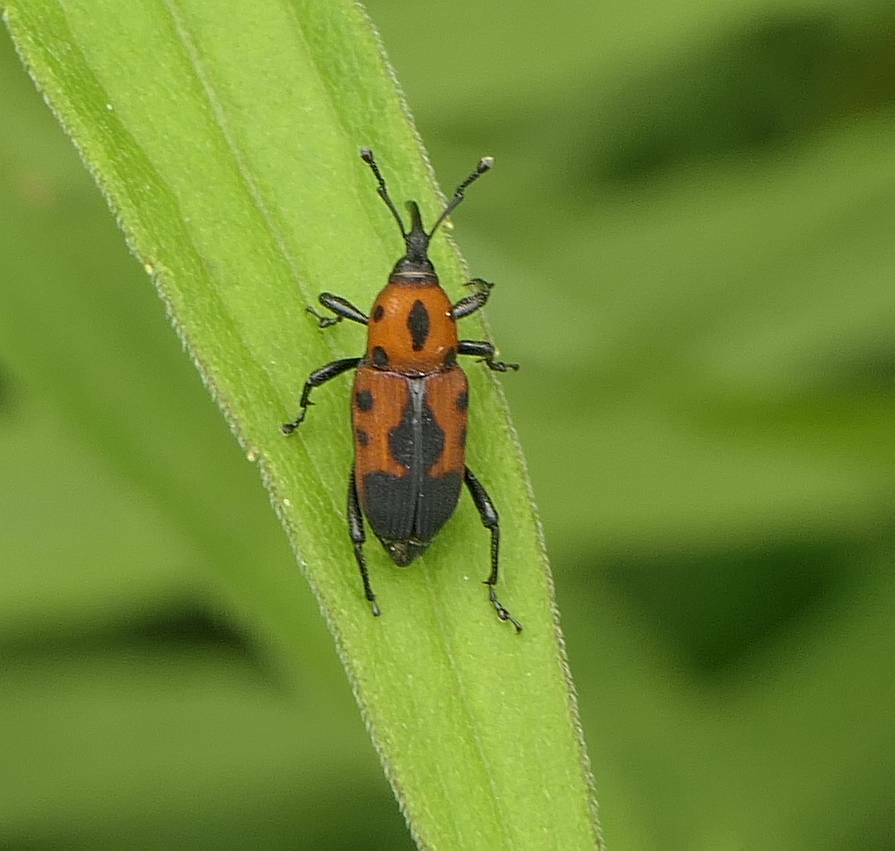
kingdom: Animalia
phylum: Arthropoda
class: Insecta
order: Coleoptera
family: Dryophthoridae
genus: Rhodobaenus
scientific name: Rhodobaenus quinquepunctatus
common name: Cocklebur weevil
